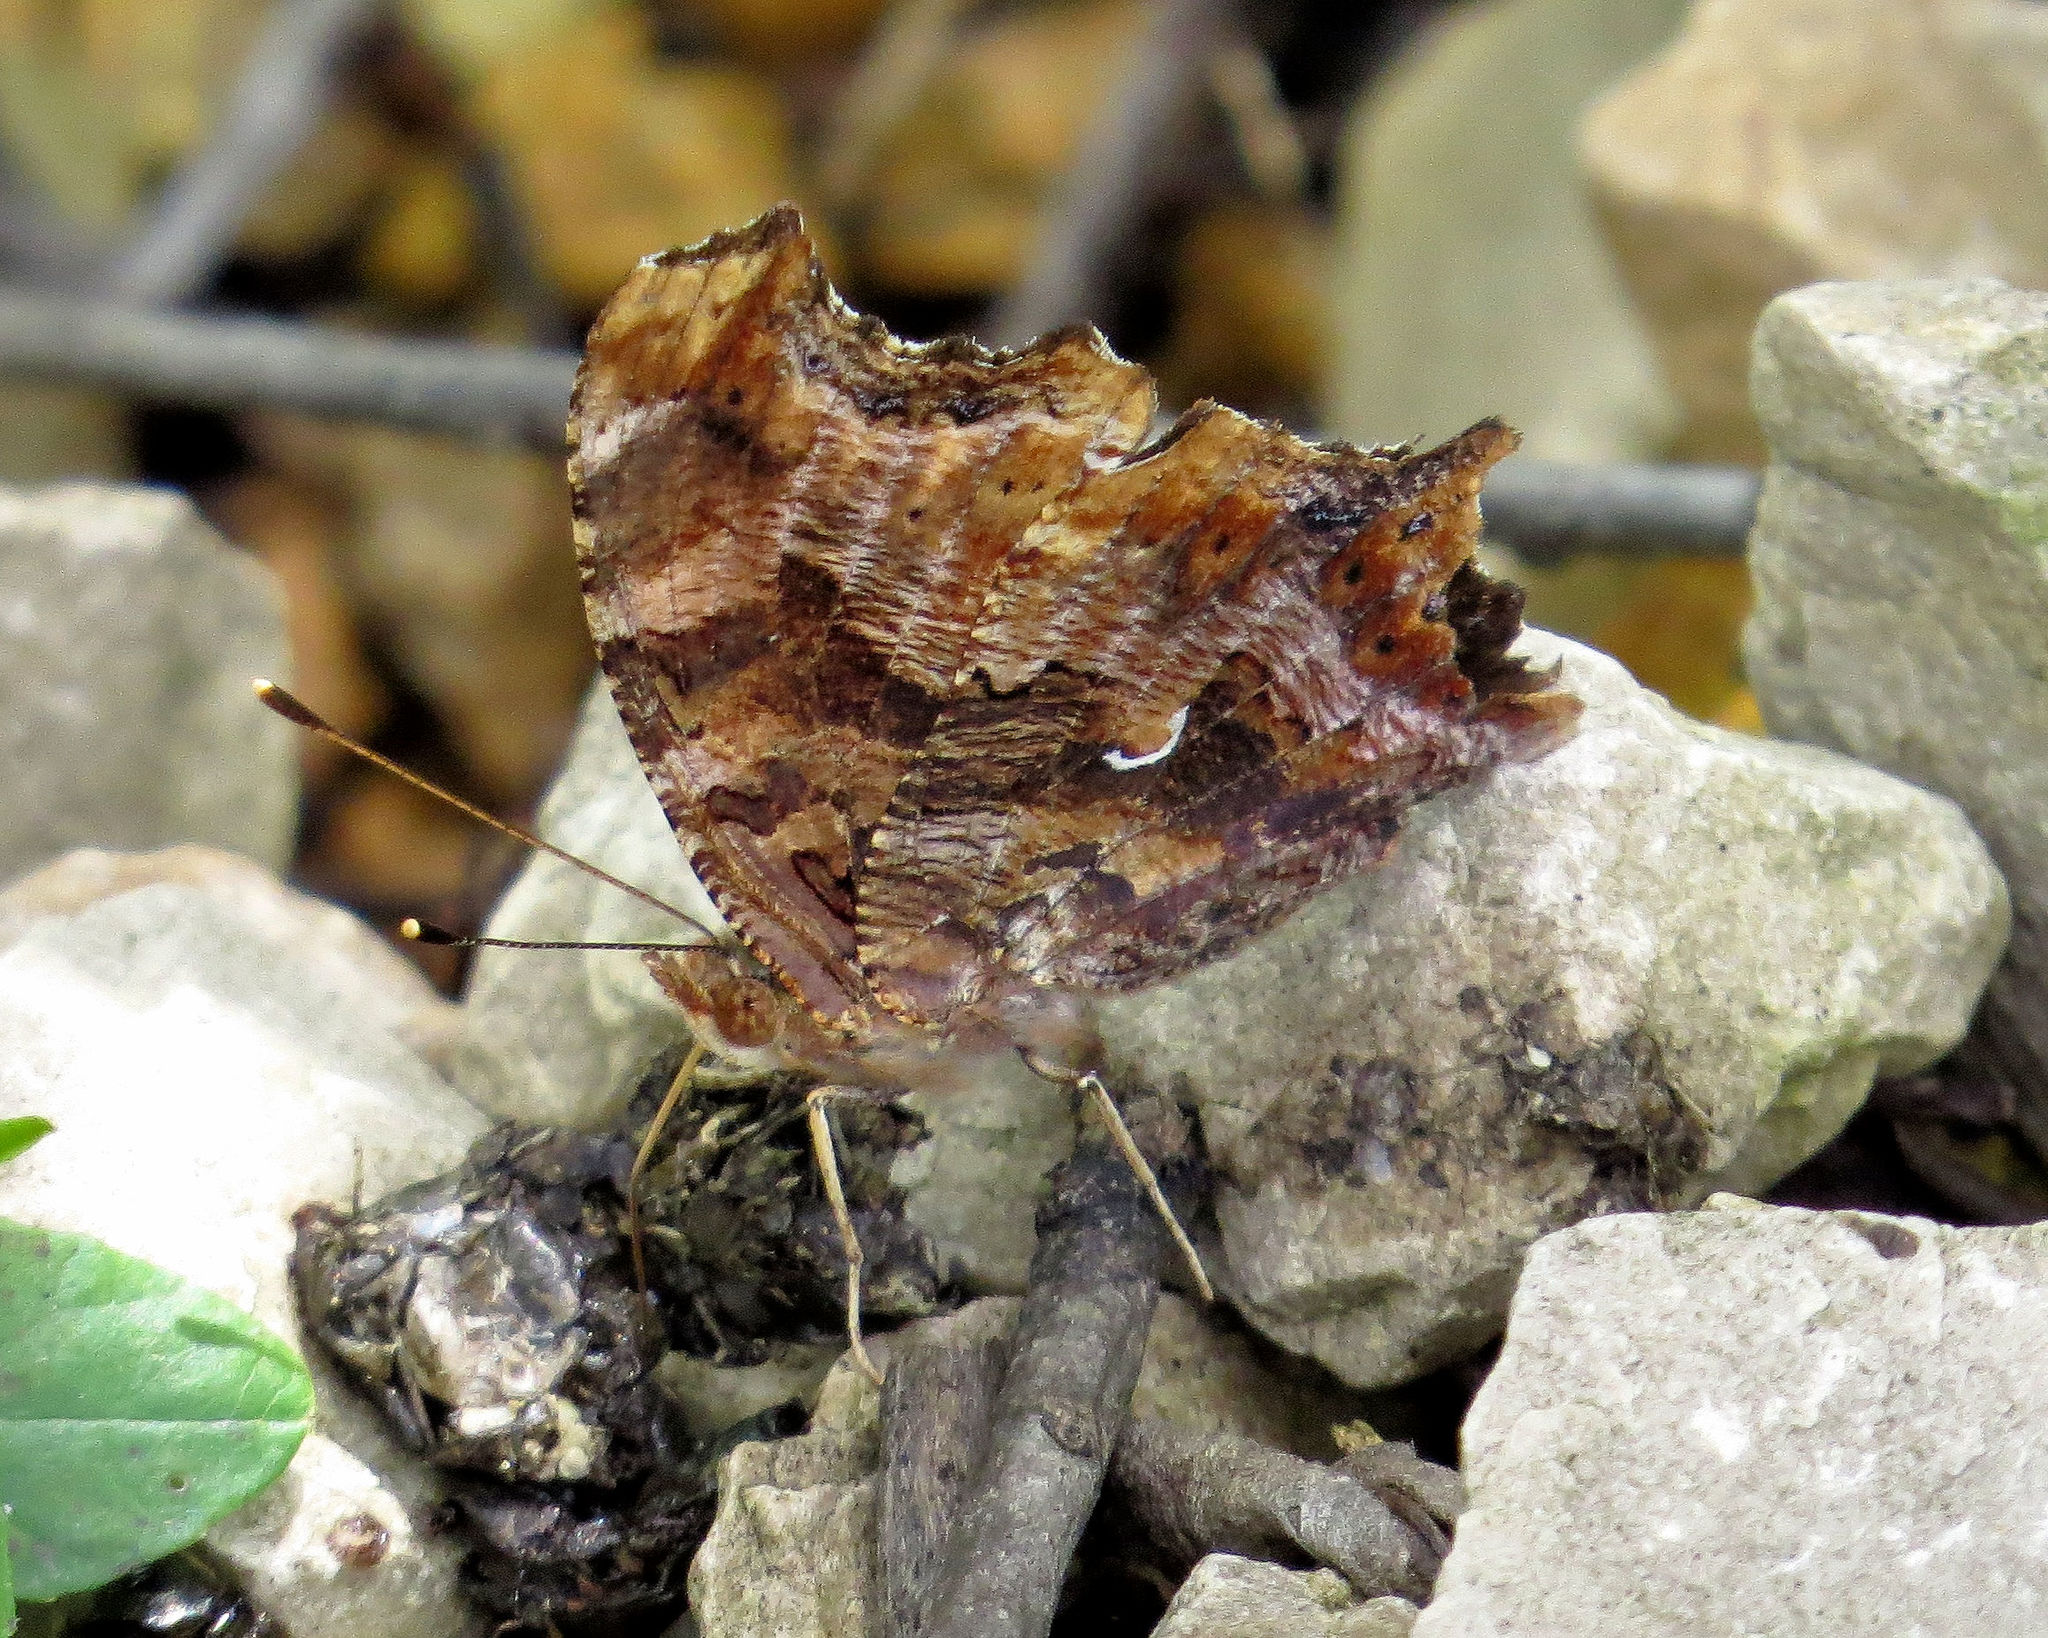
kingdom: Animalia
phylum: Arthropoda
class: Insecta
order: Lepidoptera
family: Nymphalidae
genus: Polygonia
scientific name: Polygonia comma
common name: Eastern comma
